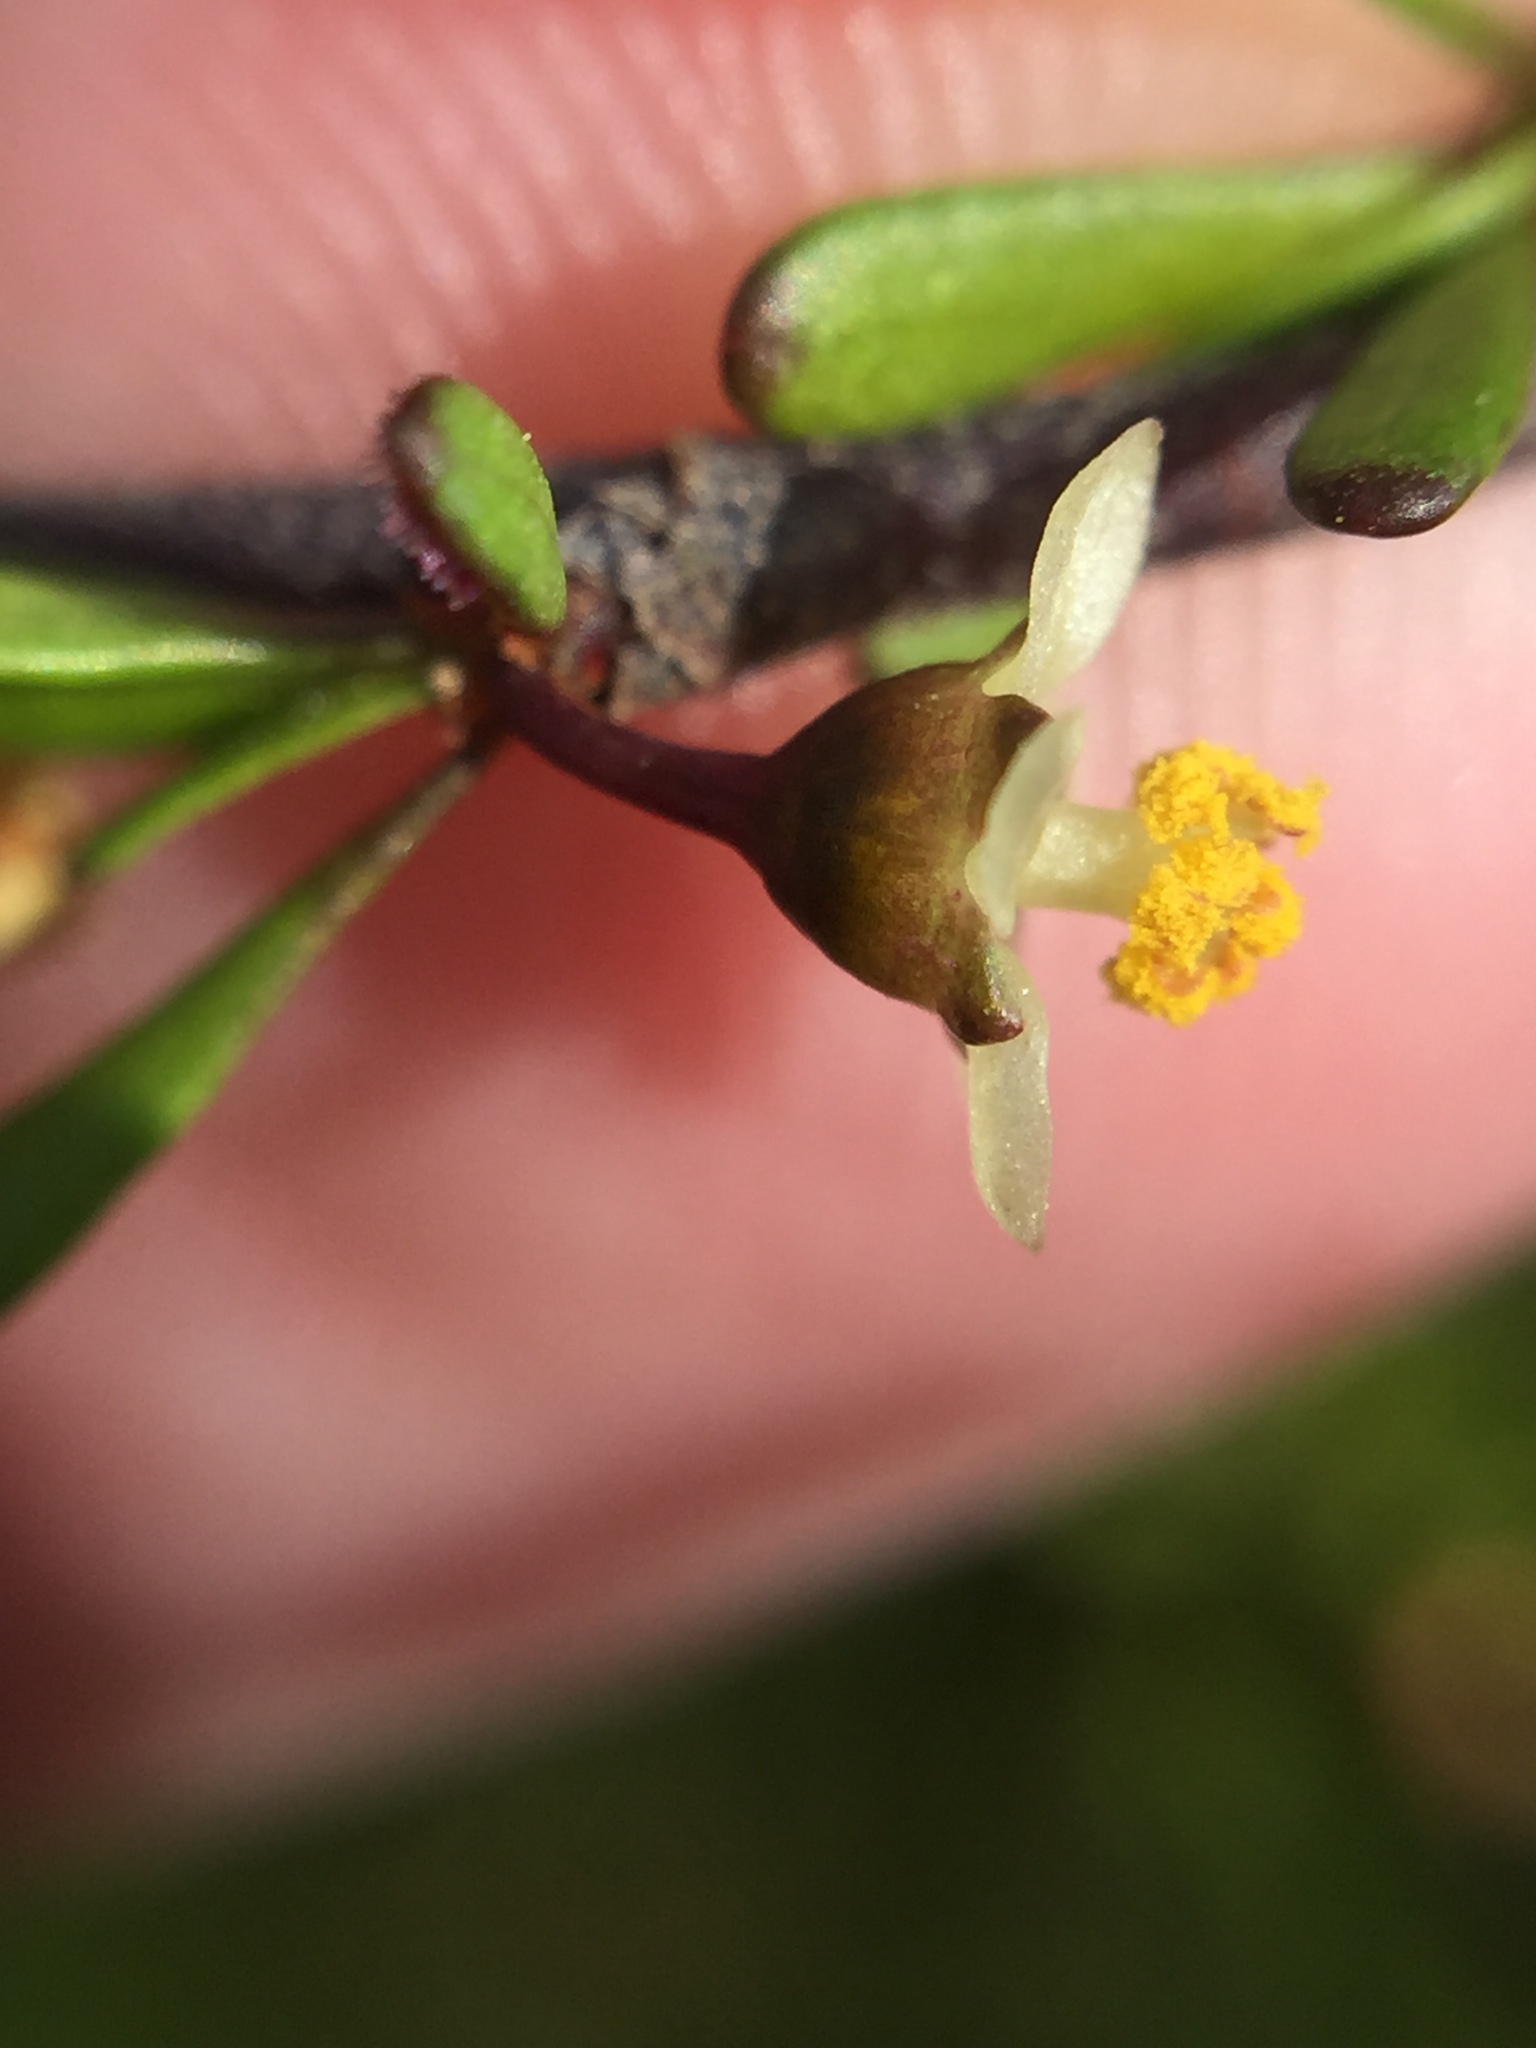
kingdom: Plantae
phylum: Tracheophyta
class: Magnoliopsida
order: Malvales
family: Malvaceae
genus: Plagianthus
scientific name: Plagianthus divaricatus
